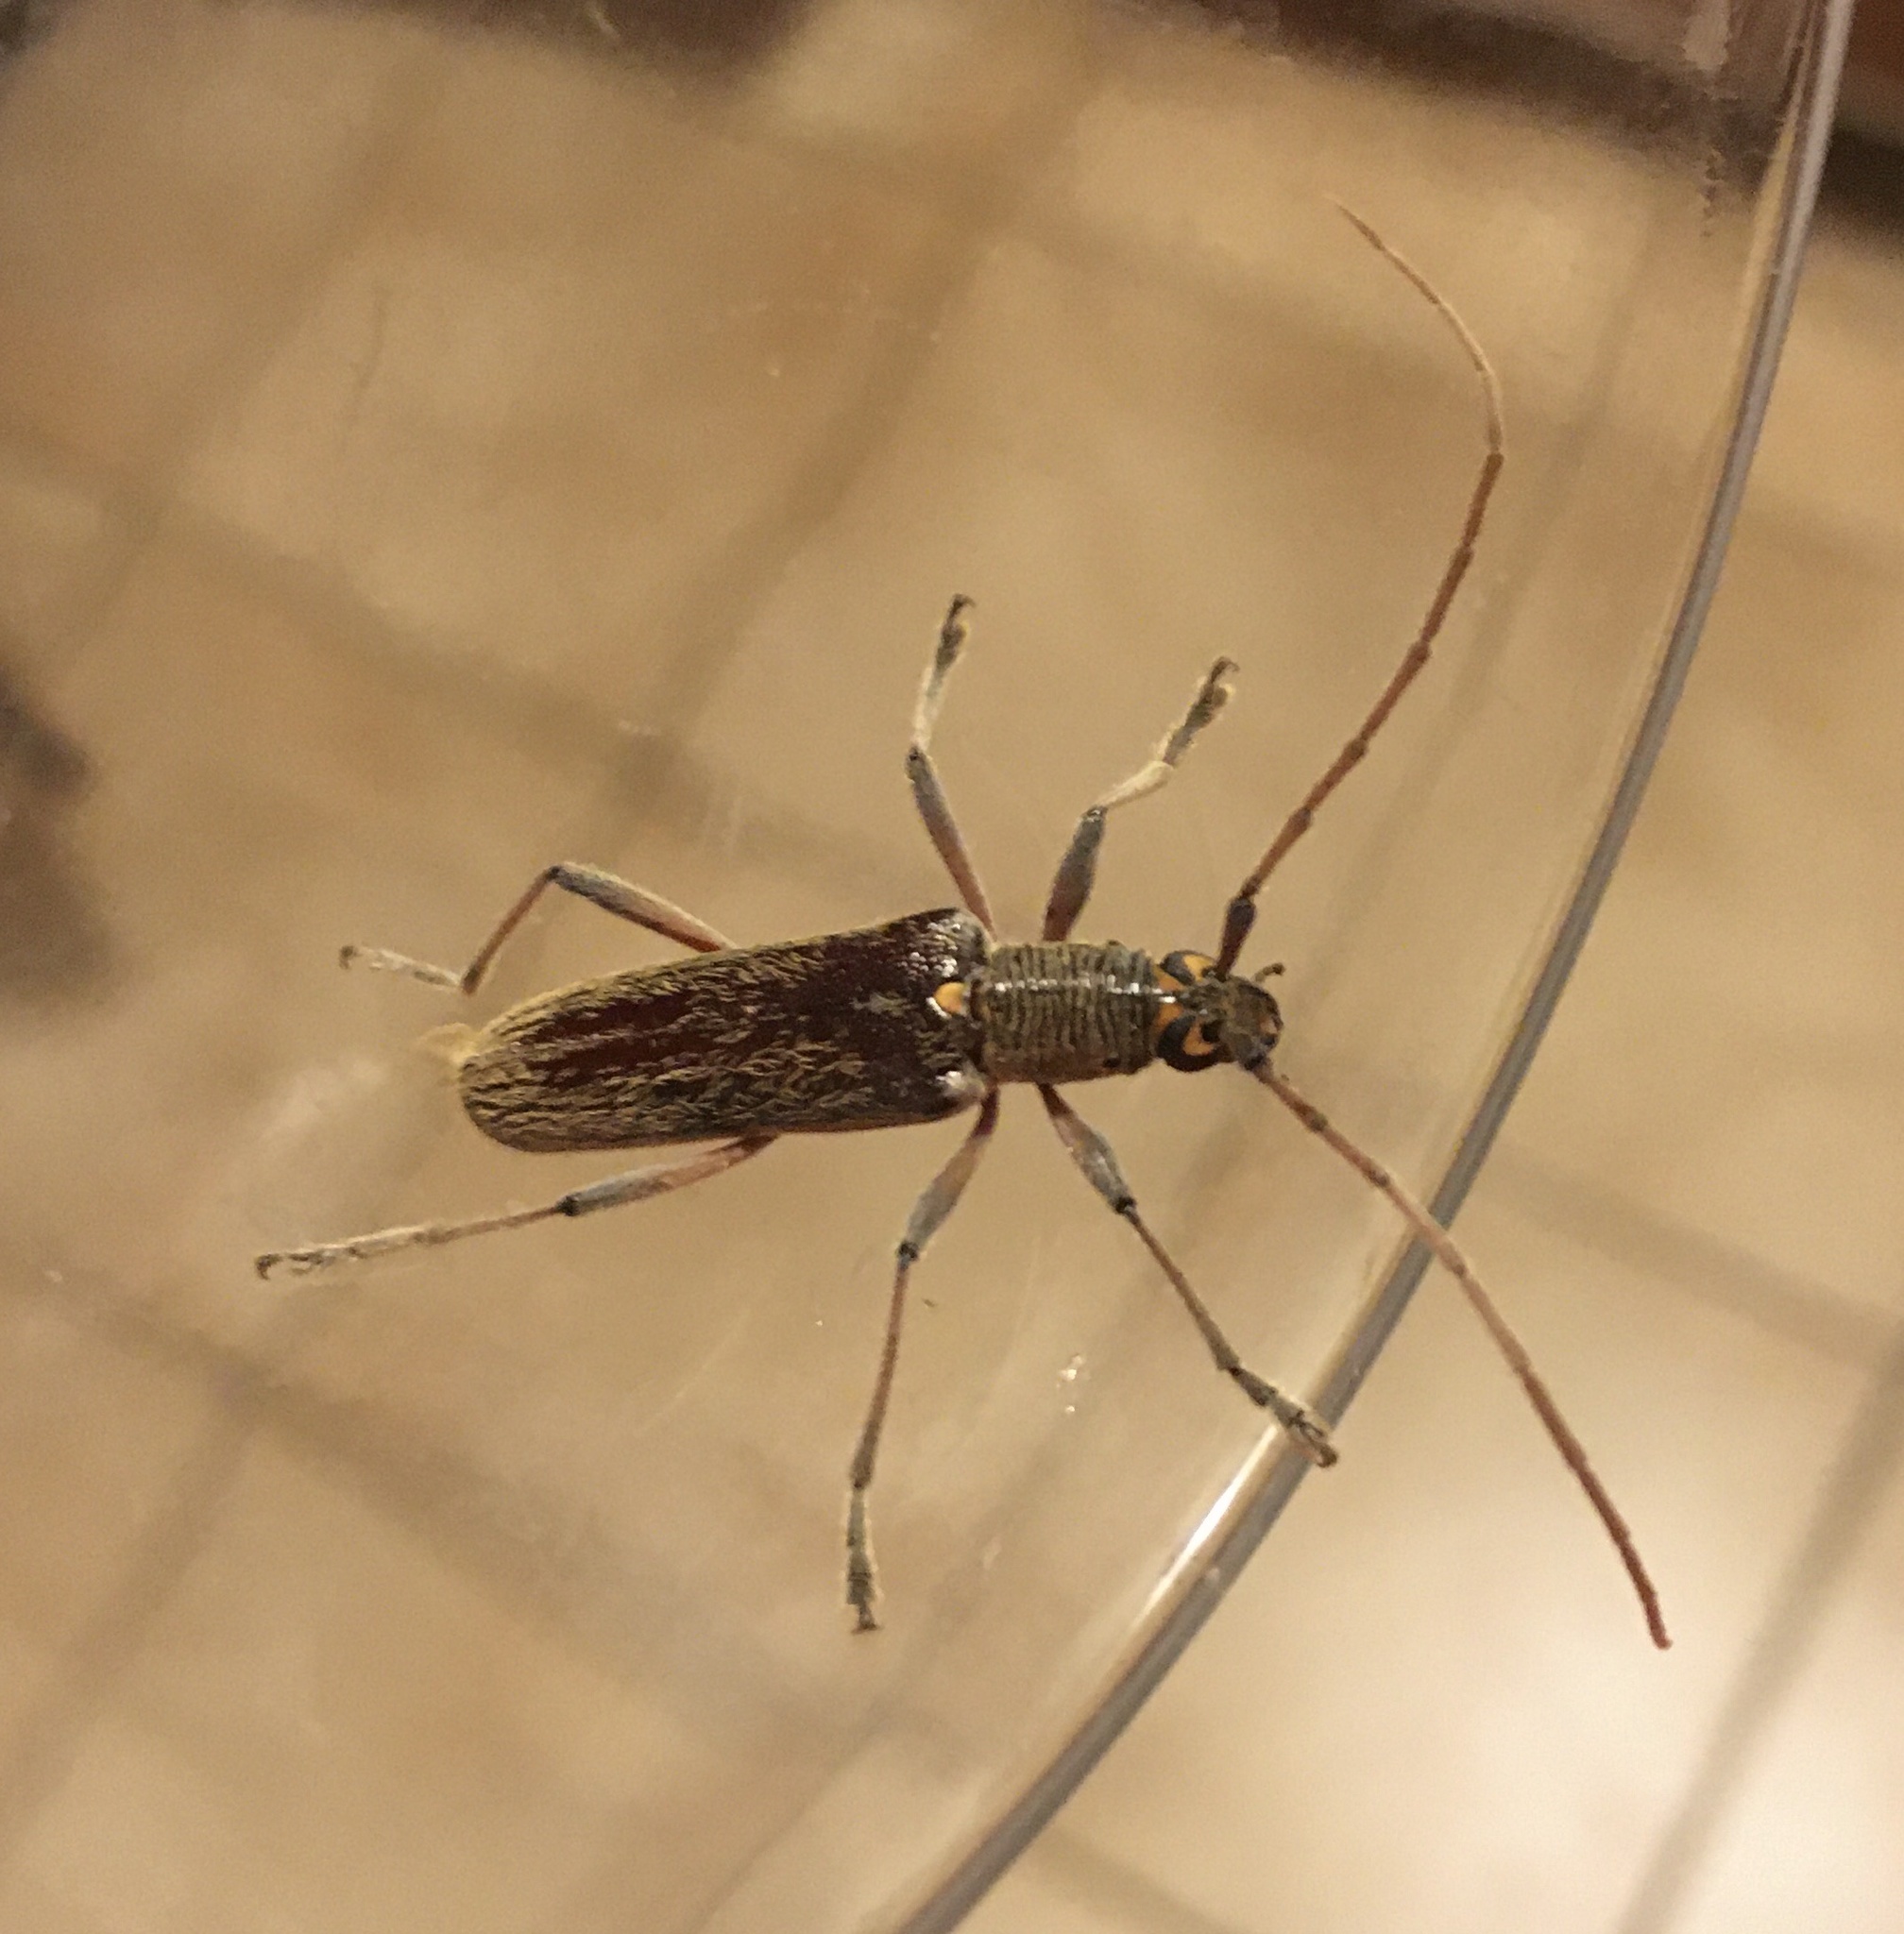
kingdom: Animalia
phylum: Arthropoda
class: Insecta
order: Coleoptera
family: Cerambycidae
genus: Oemona
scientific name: Oemona hirta
